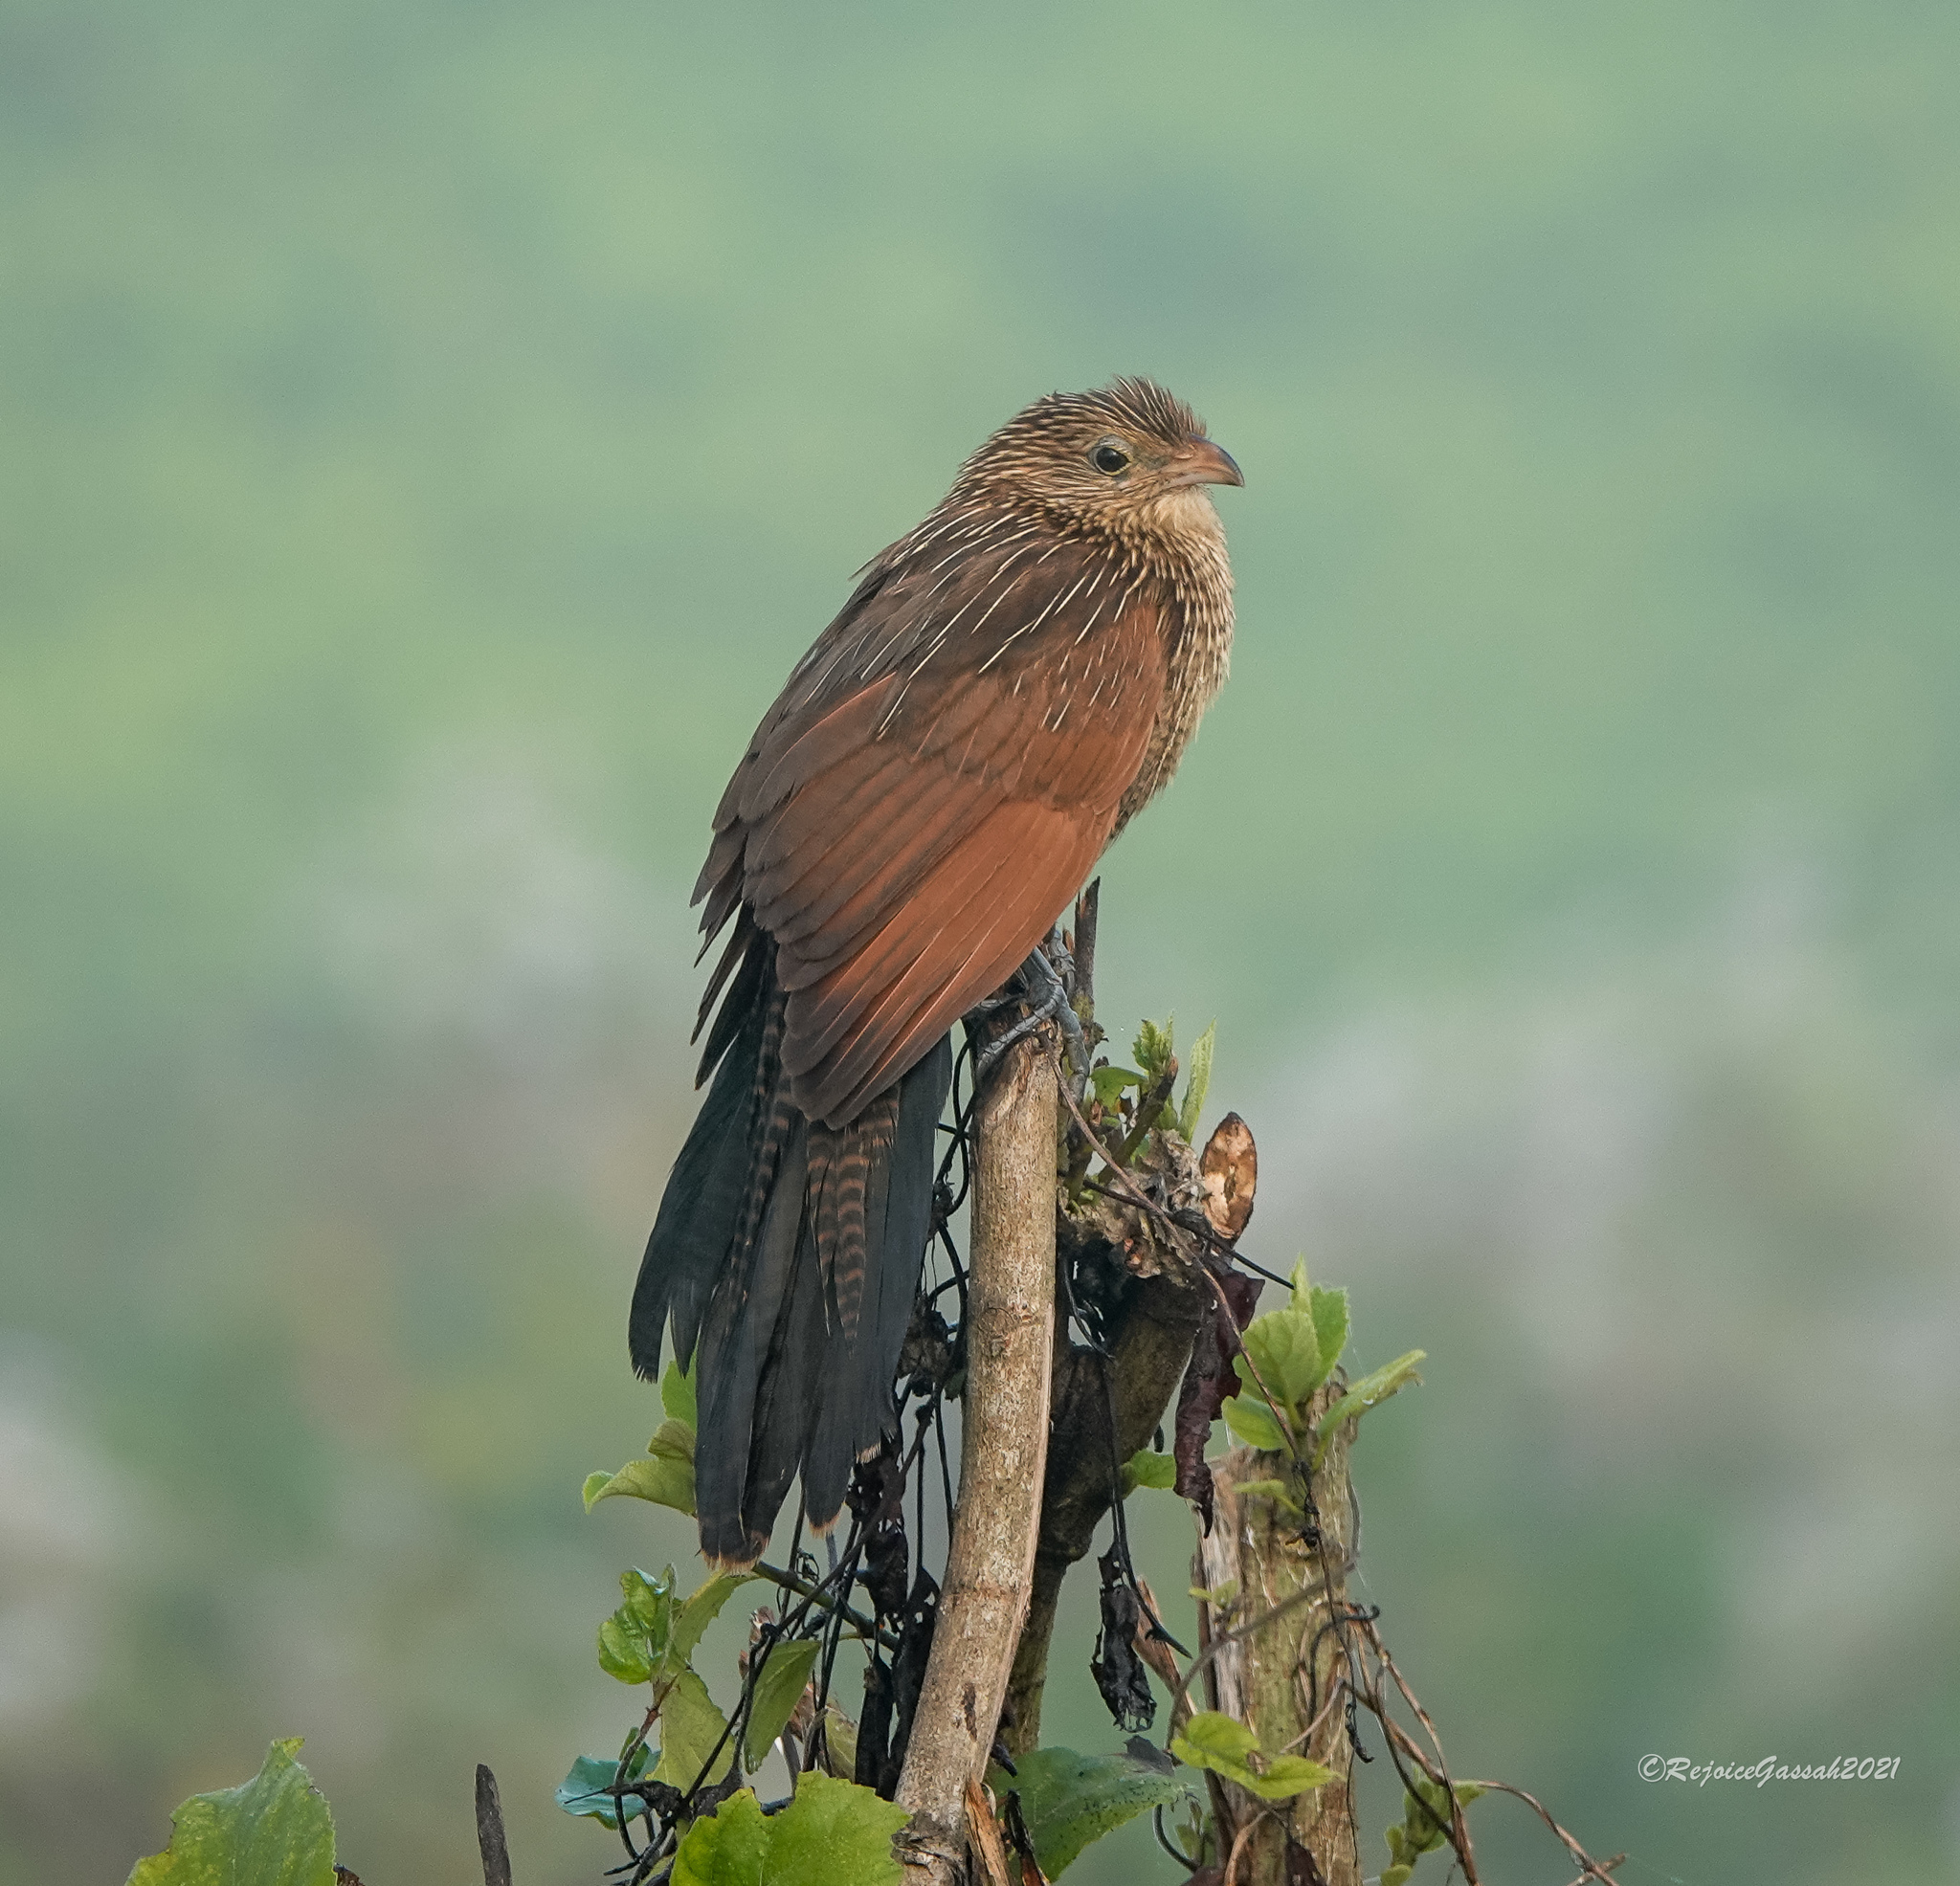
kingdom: Animalia
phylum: Chordata
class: Aves
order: Cuculiformes
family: Cuculidae
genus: Centropus
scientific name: Centropus bengalensis
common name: Lesser coucal
